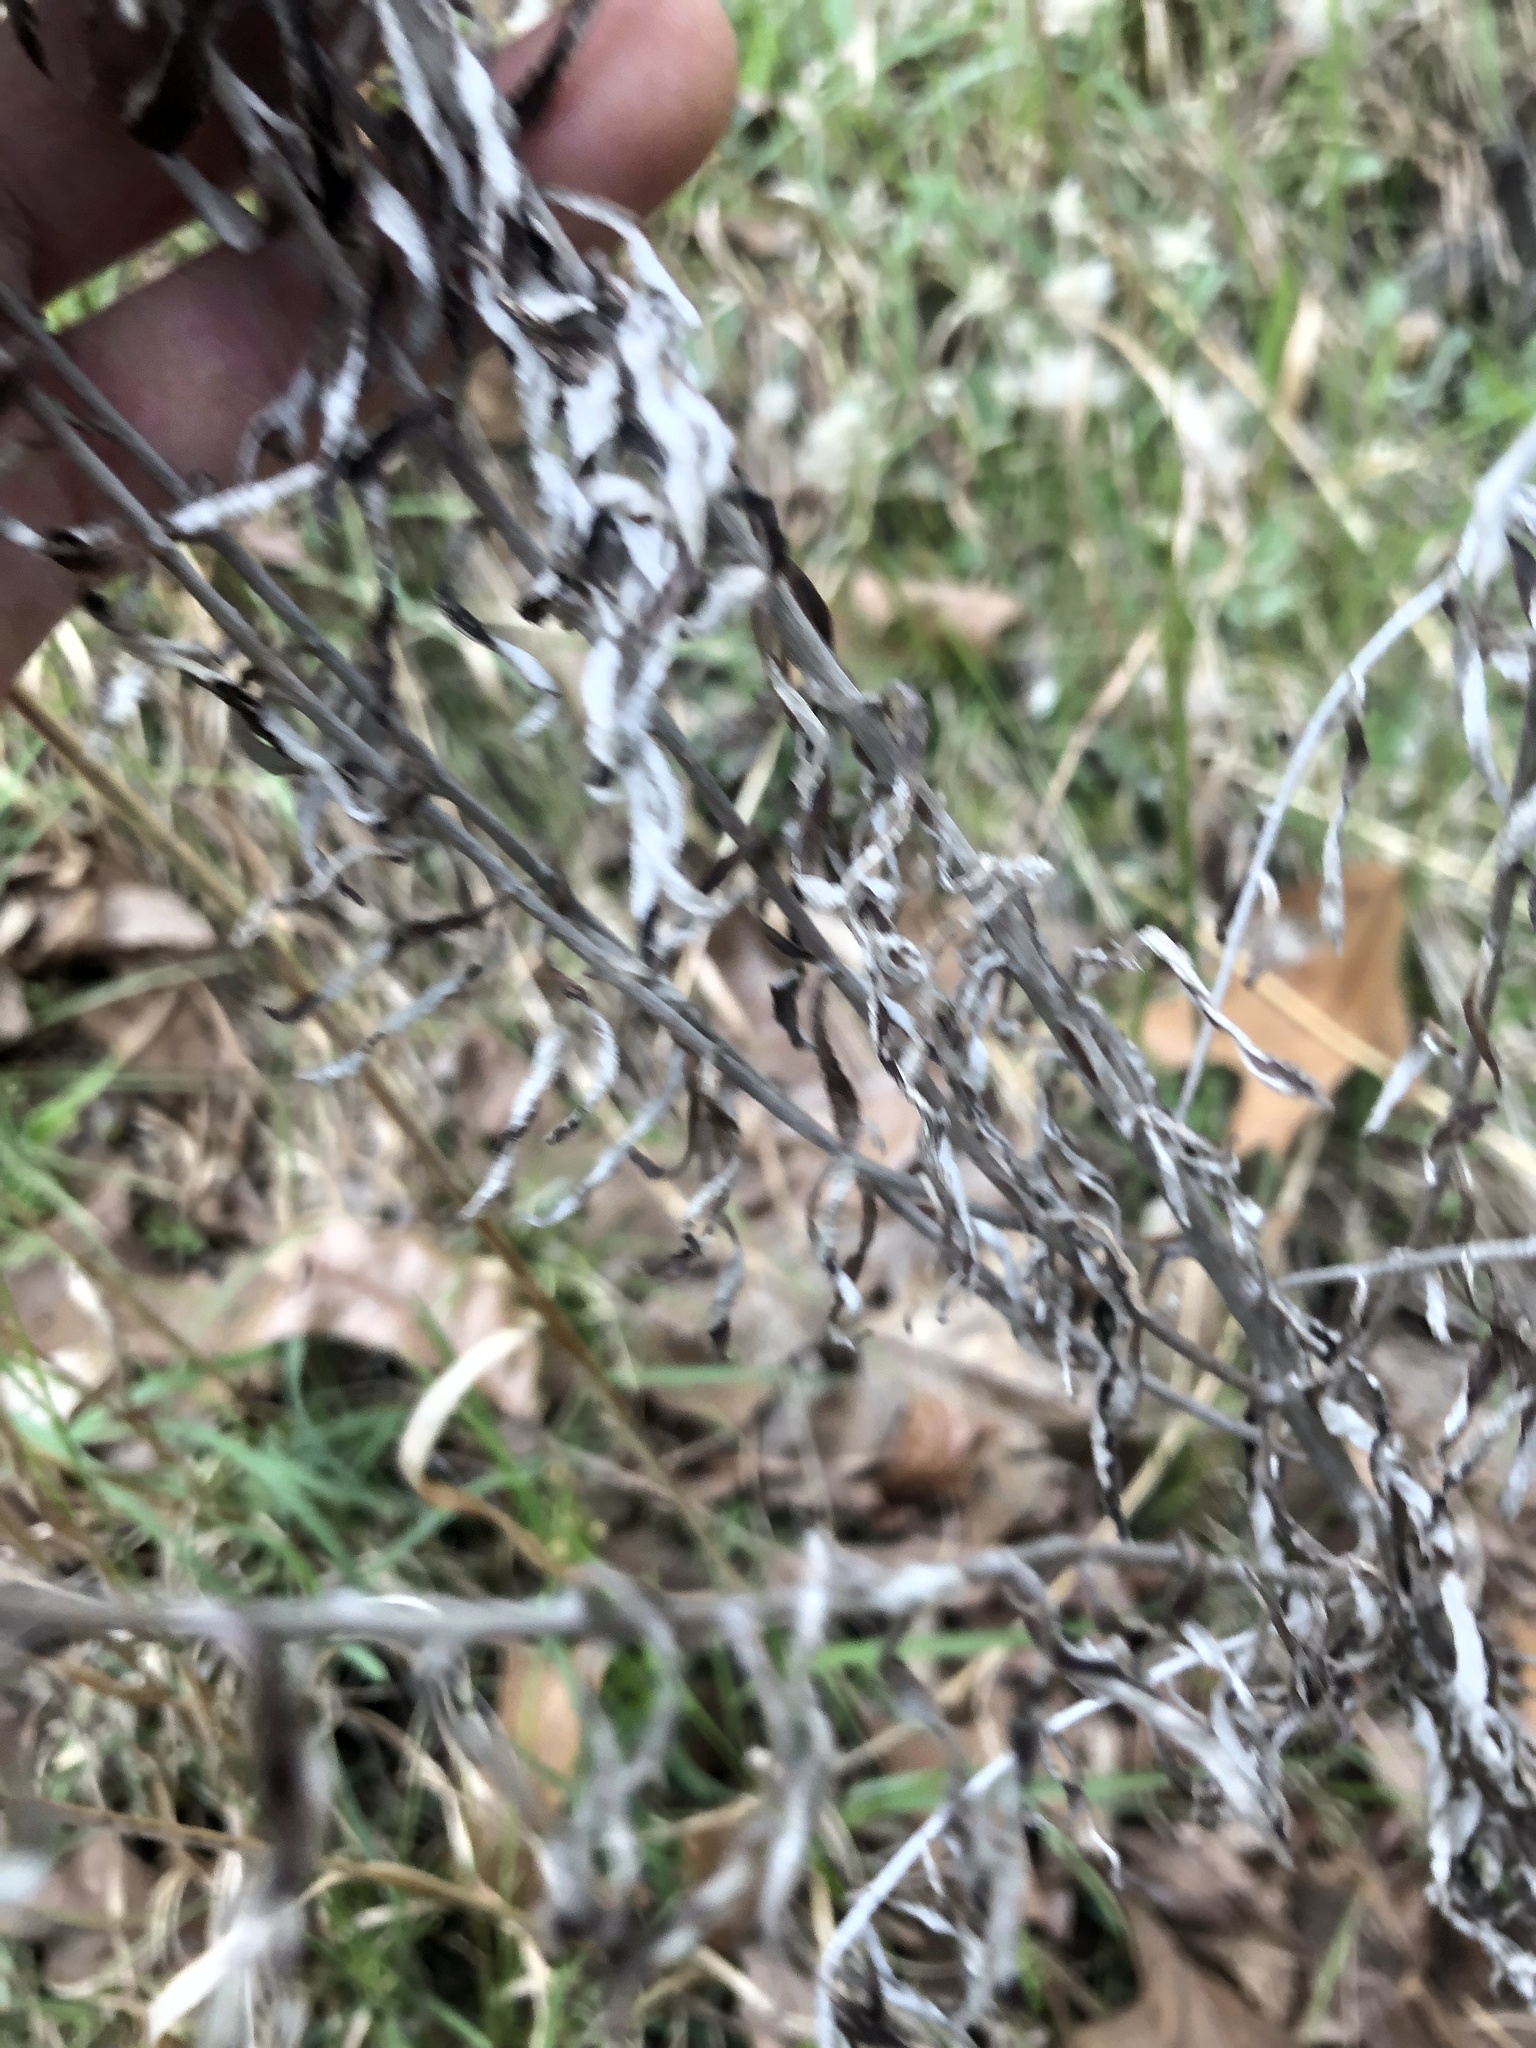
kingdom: Plantae
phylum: Tracheophyta
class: Magnoliopsida
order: Asterales
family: Asteraceae
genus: Pseudognaphalium
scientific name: Pseudognaphalium obtusifolium
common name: Eastern rabbit-tobacco
